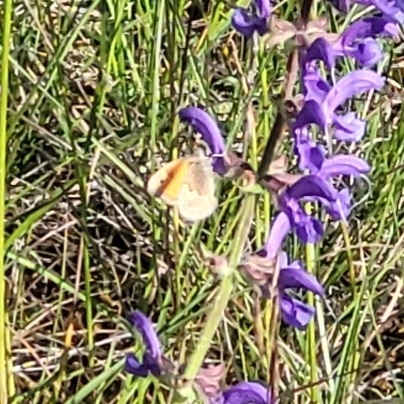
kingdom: Animalia
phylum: Arthropoda
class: Insecta
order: Lepidoptera
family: Nymphalidae
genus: Coenonympha
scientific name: Coenonympha pamphilus
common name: Small heath
